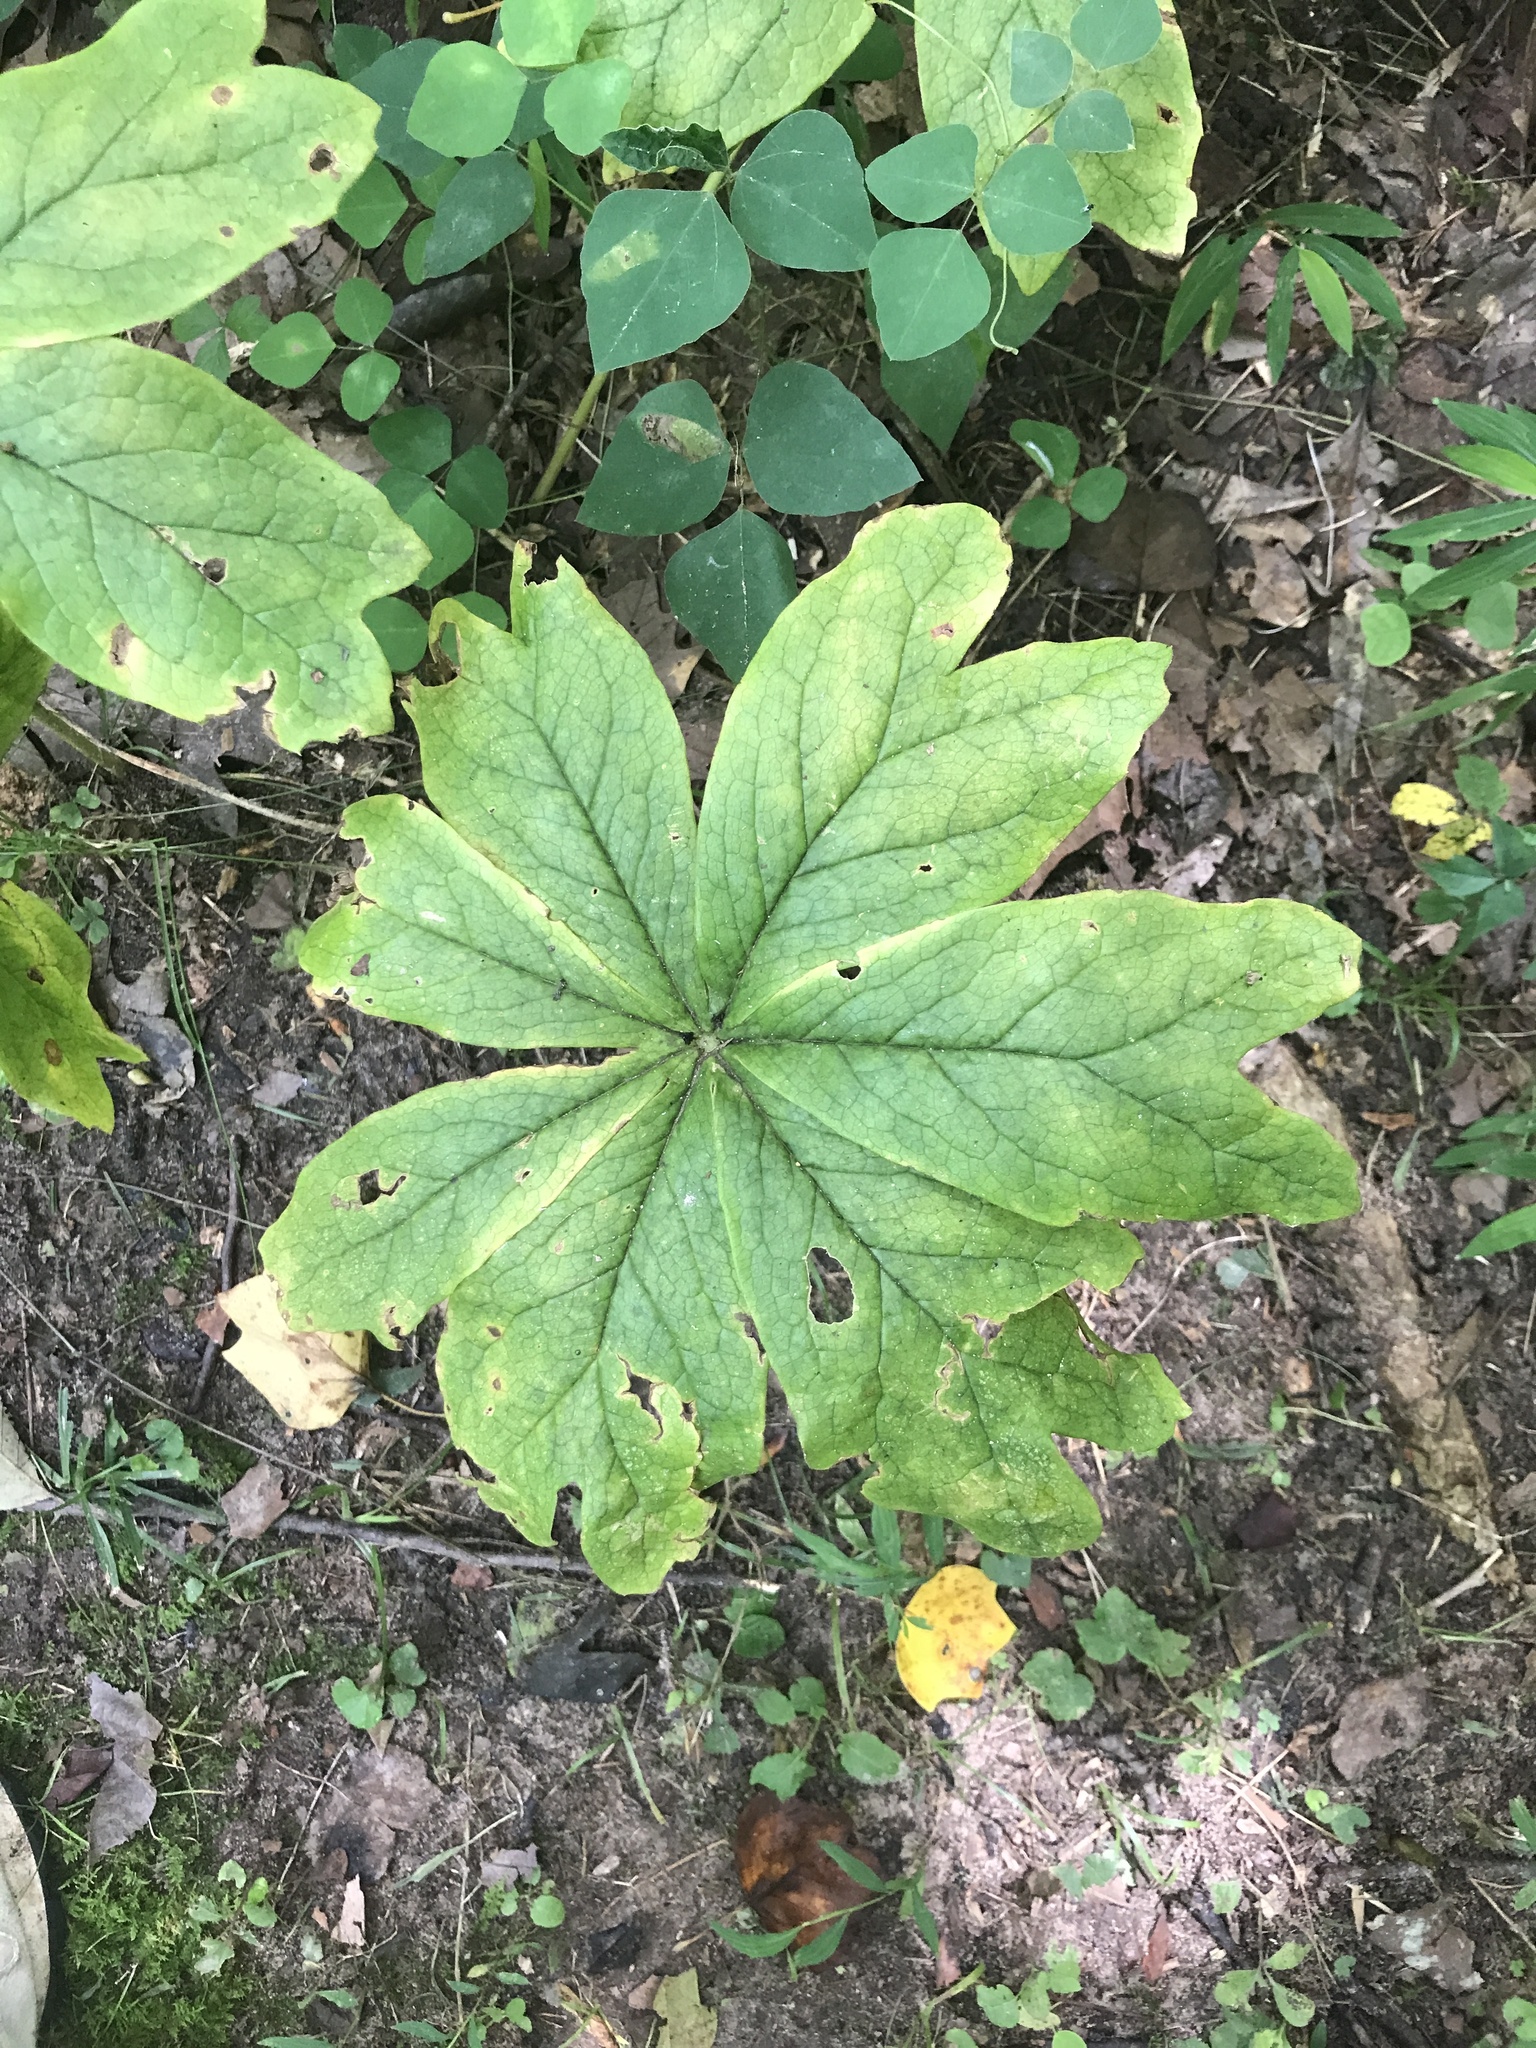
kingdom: Plantae
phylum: Tracheophyta
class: Magnoliopsida
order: Ranunculales
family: Berberidaceae
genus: Podophyllum
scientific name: Podophyllum peltatum
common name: Wild mandrake
